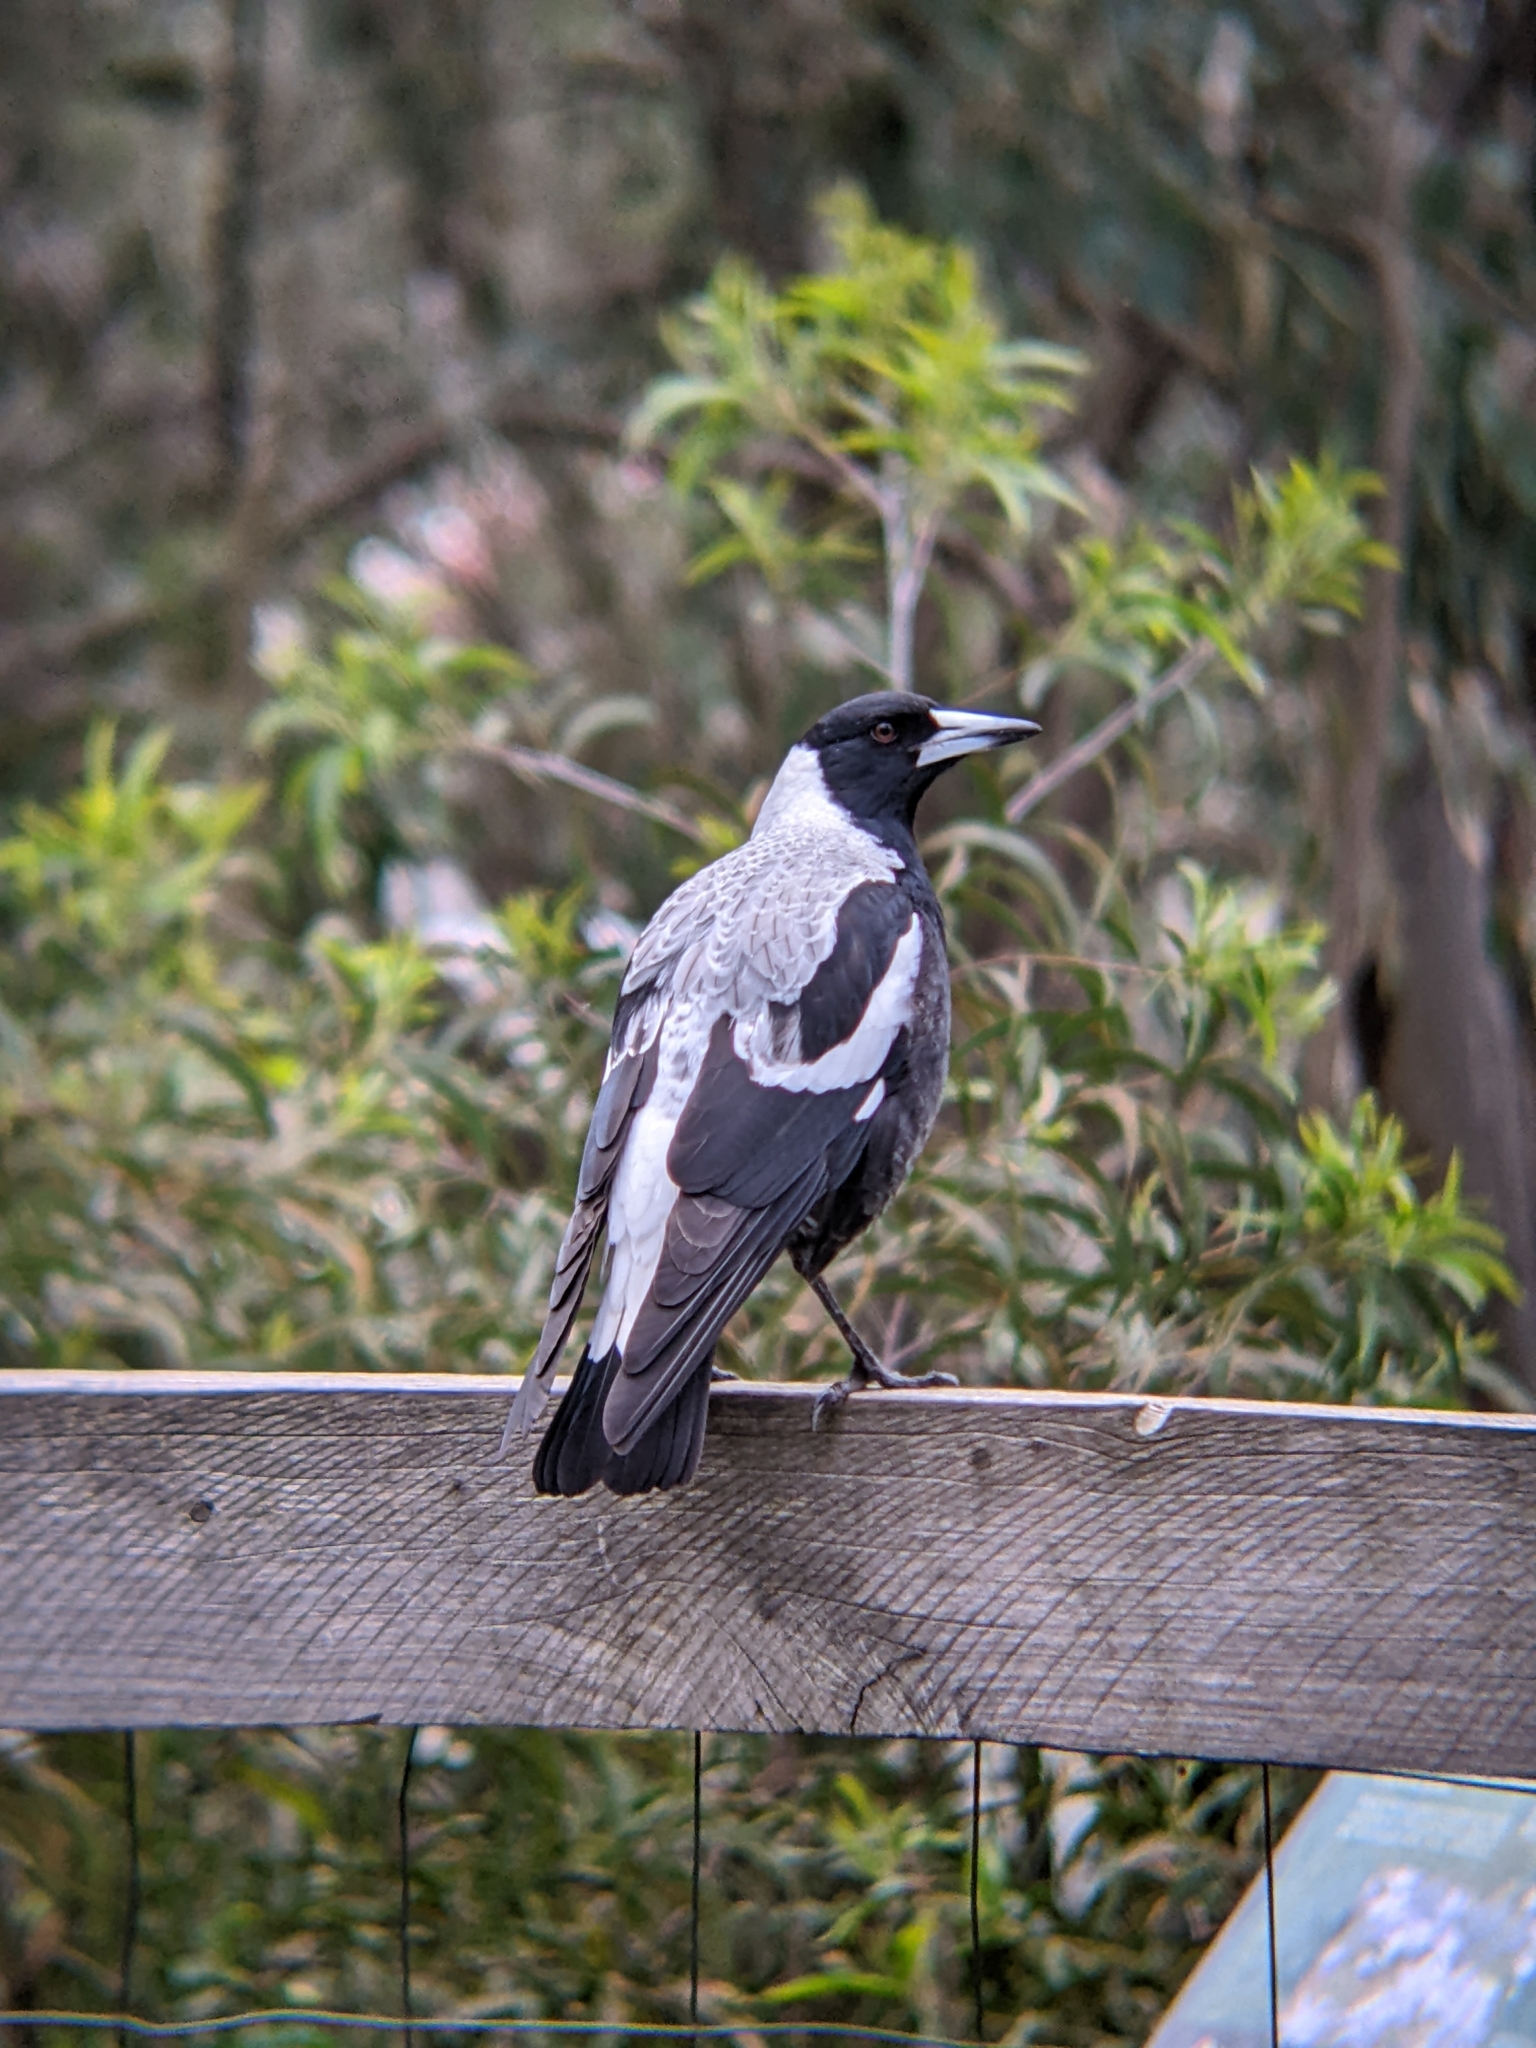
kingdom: Animalia
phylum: Chordata
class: Aves
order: Passeriformes
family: Cracticidae
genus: Gymnorhina
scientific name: Gymnorhina tibicen
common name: Australian magpie
